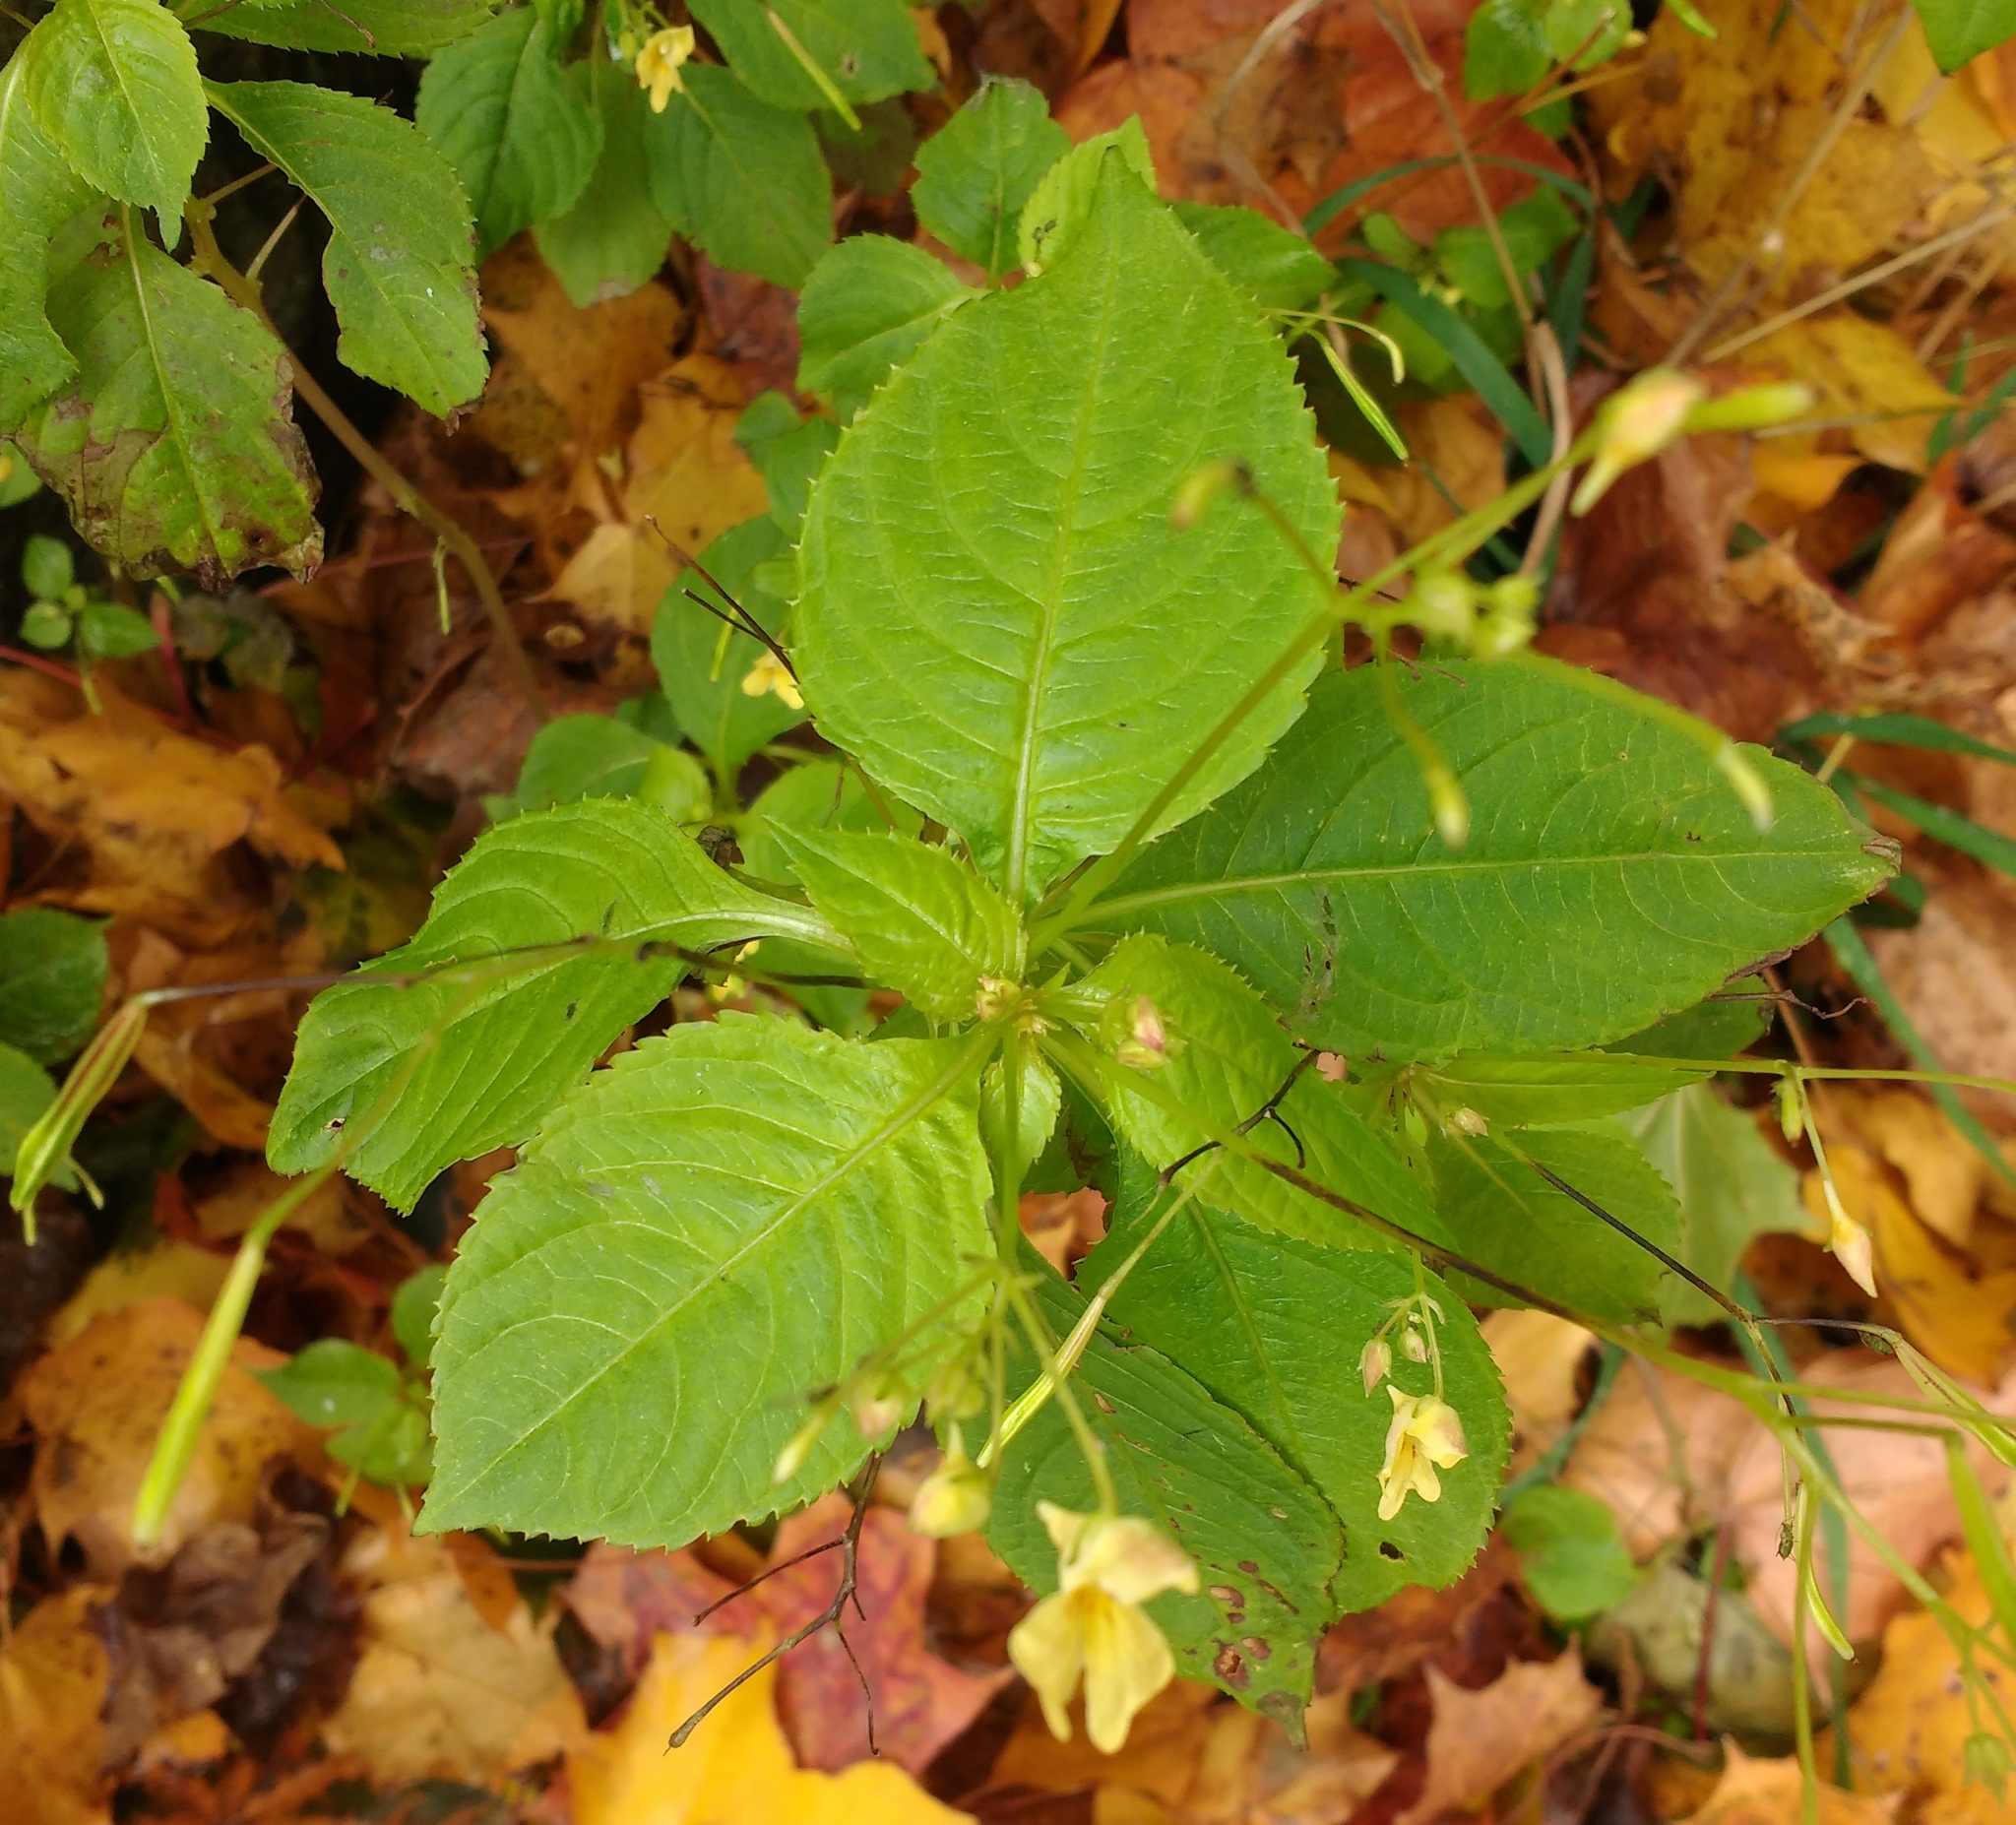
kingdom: Plantae
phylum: Tracheophyta
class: Magnoliopsida
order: Ericales
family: Balsaminaceae
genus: Impatiens
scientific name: Impatiens parviflora
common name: Small balsam
